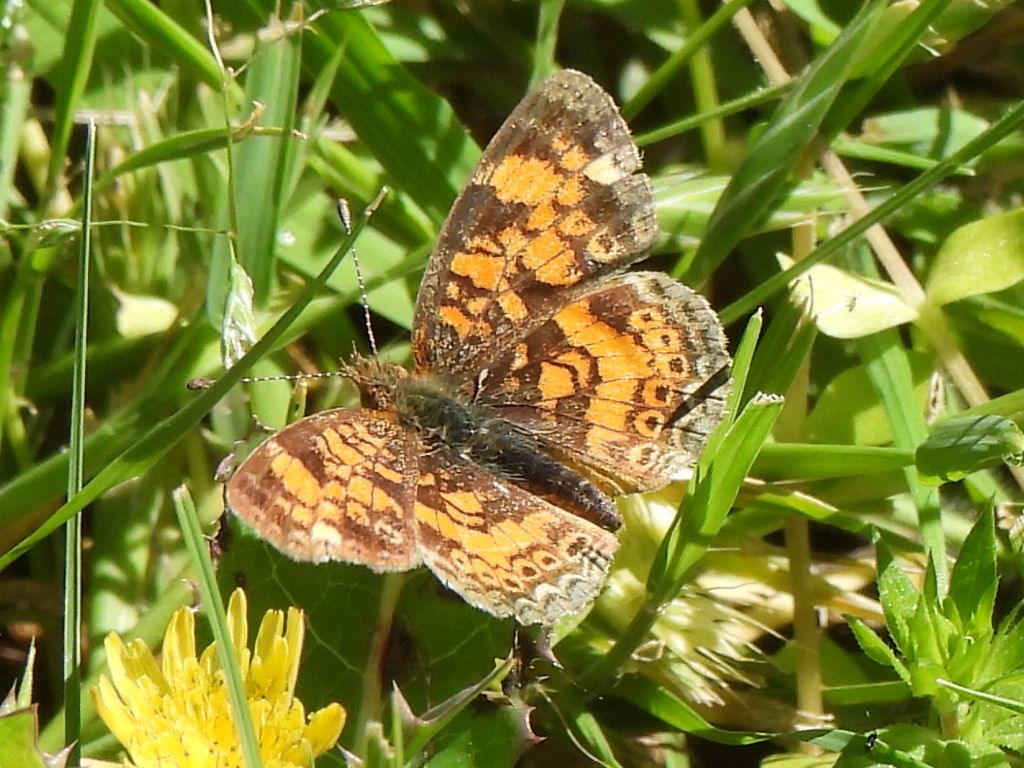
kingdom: Animalia
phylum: Arthropoda
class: Insecta
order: Lepidoptera
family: Nymphalidae
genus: Phyciodes
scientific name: Phyciodes tharos
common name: Pearl crescent
